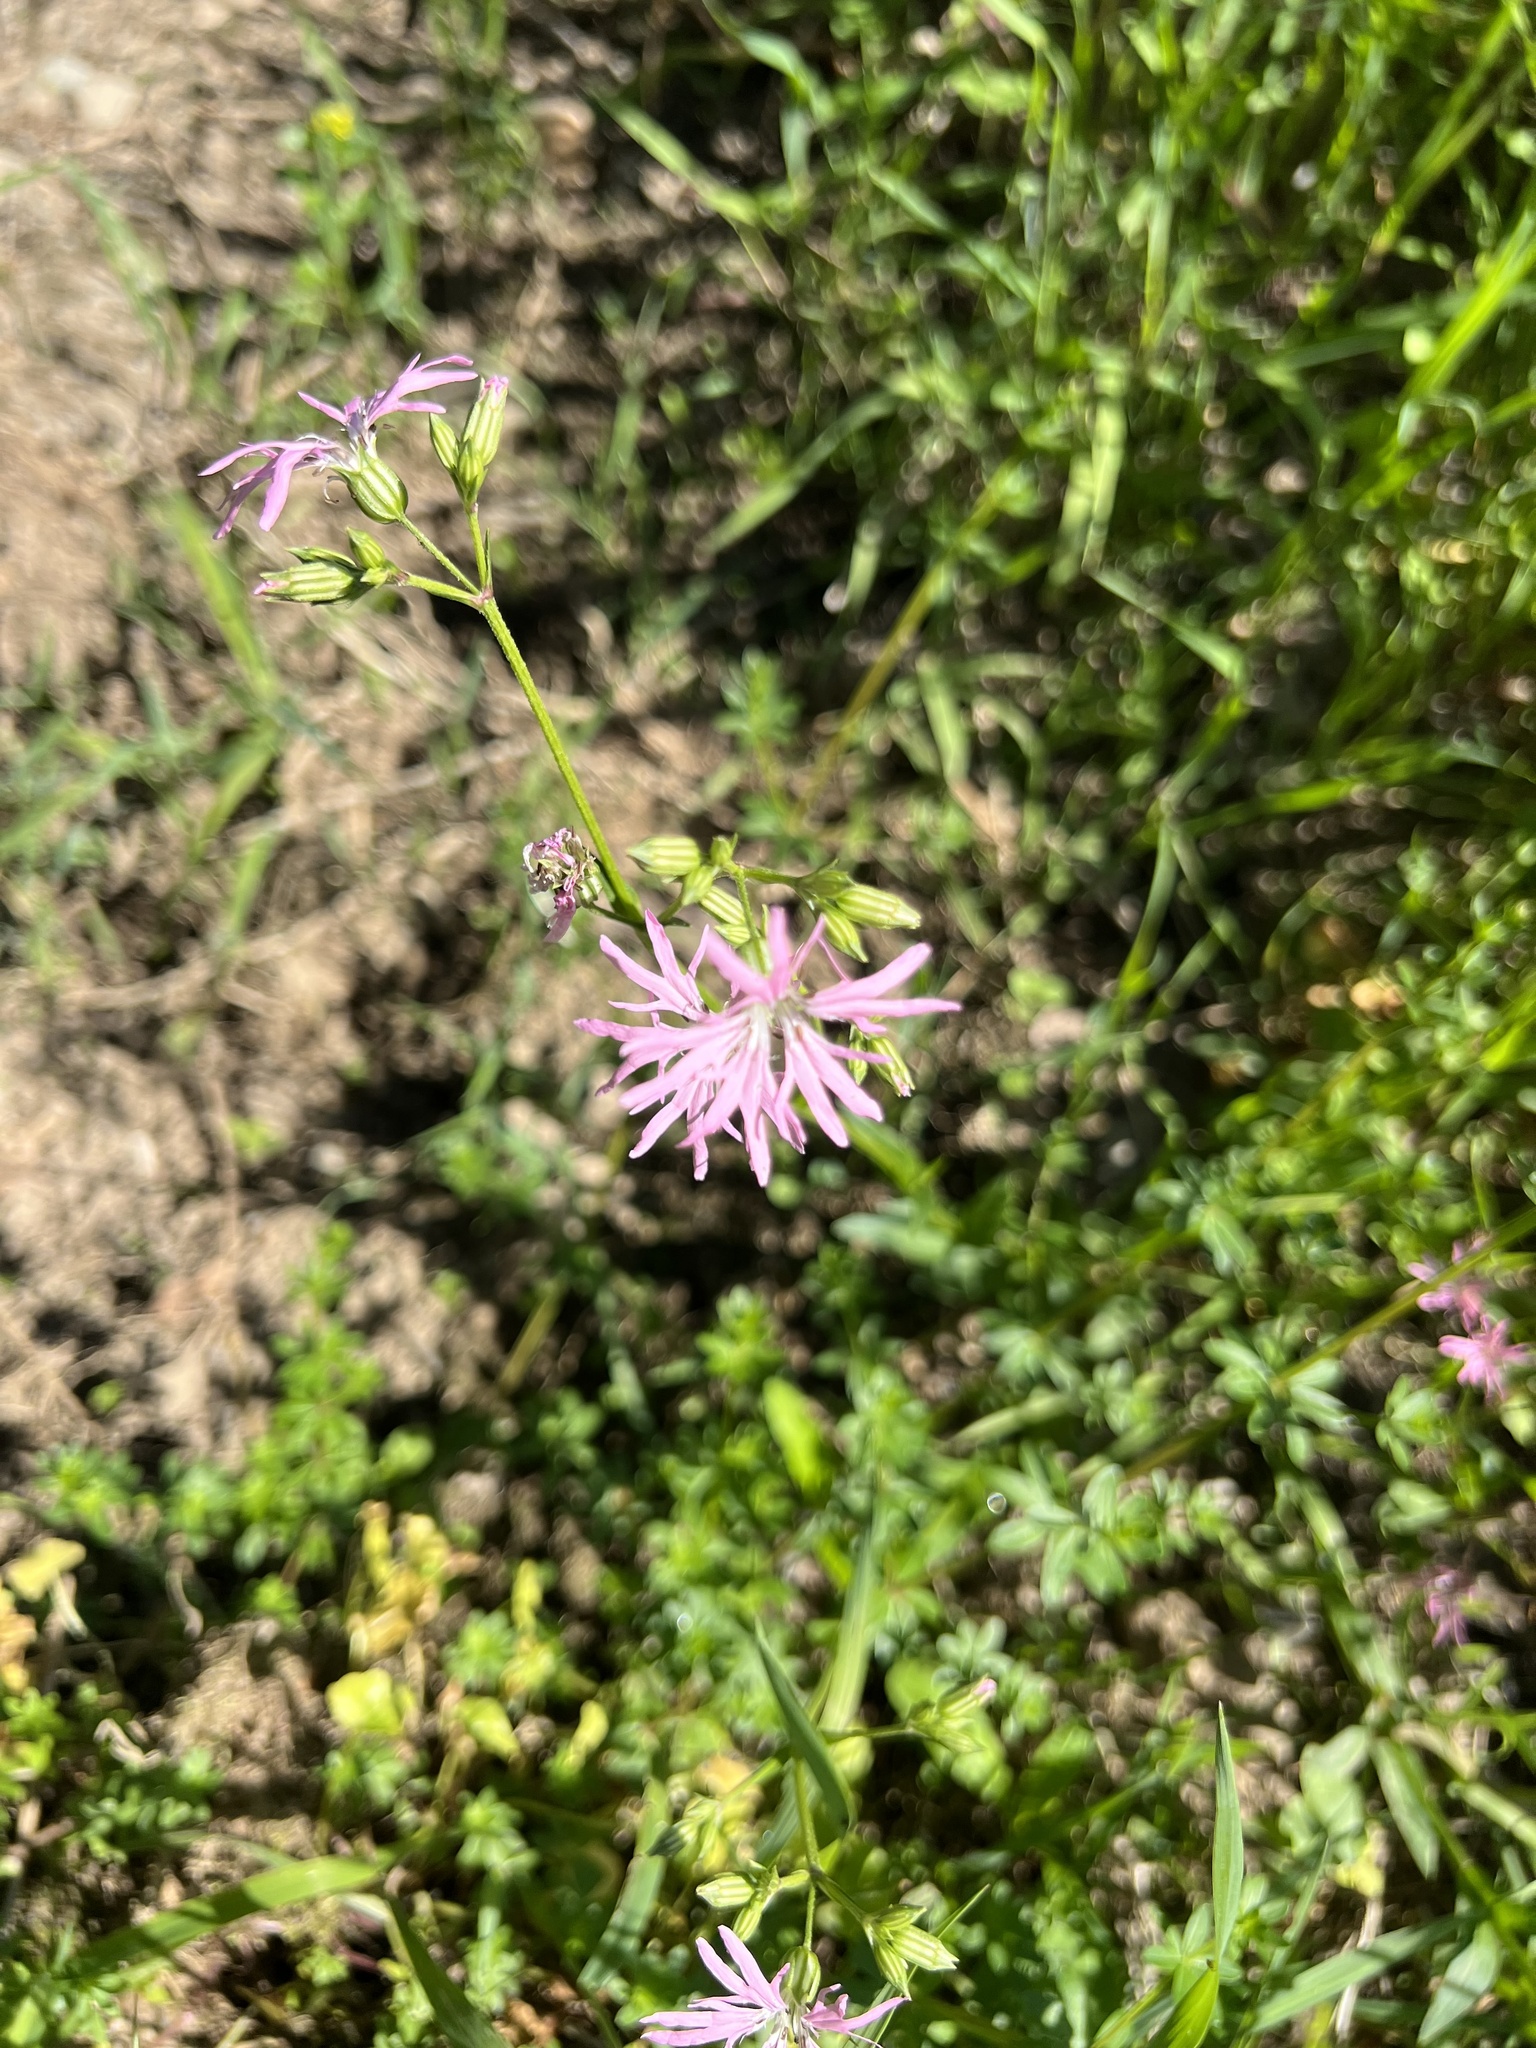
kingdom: Plantae
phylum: Tracheophyta
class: Magnoliopsida
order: Caryophyllales
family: Caryophyllaceae
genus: Silene
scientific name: Silene flos-cuculi
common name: Ragged-robin
